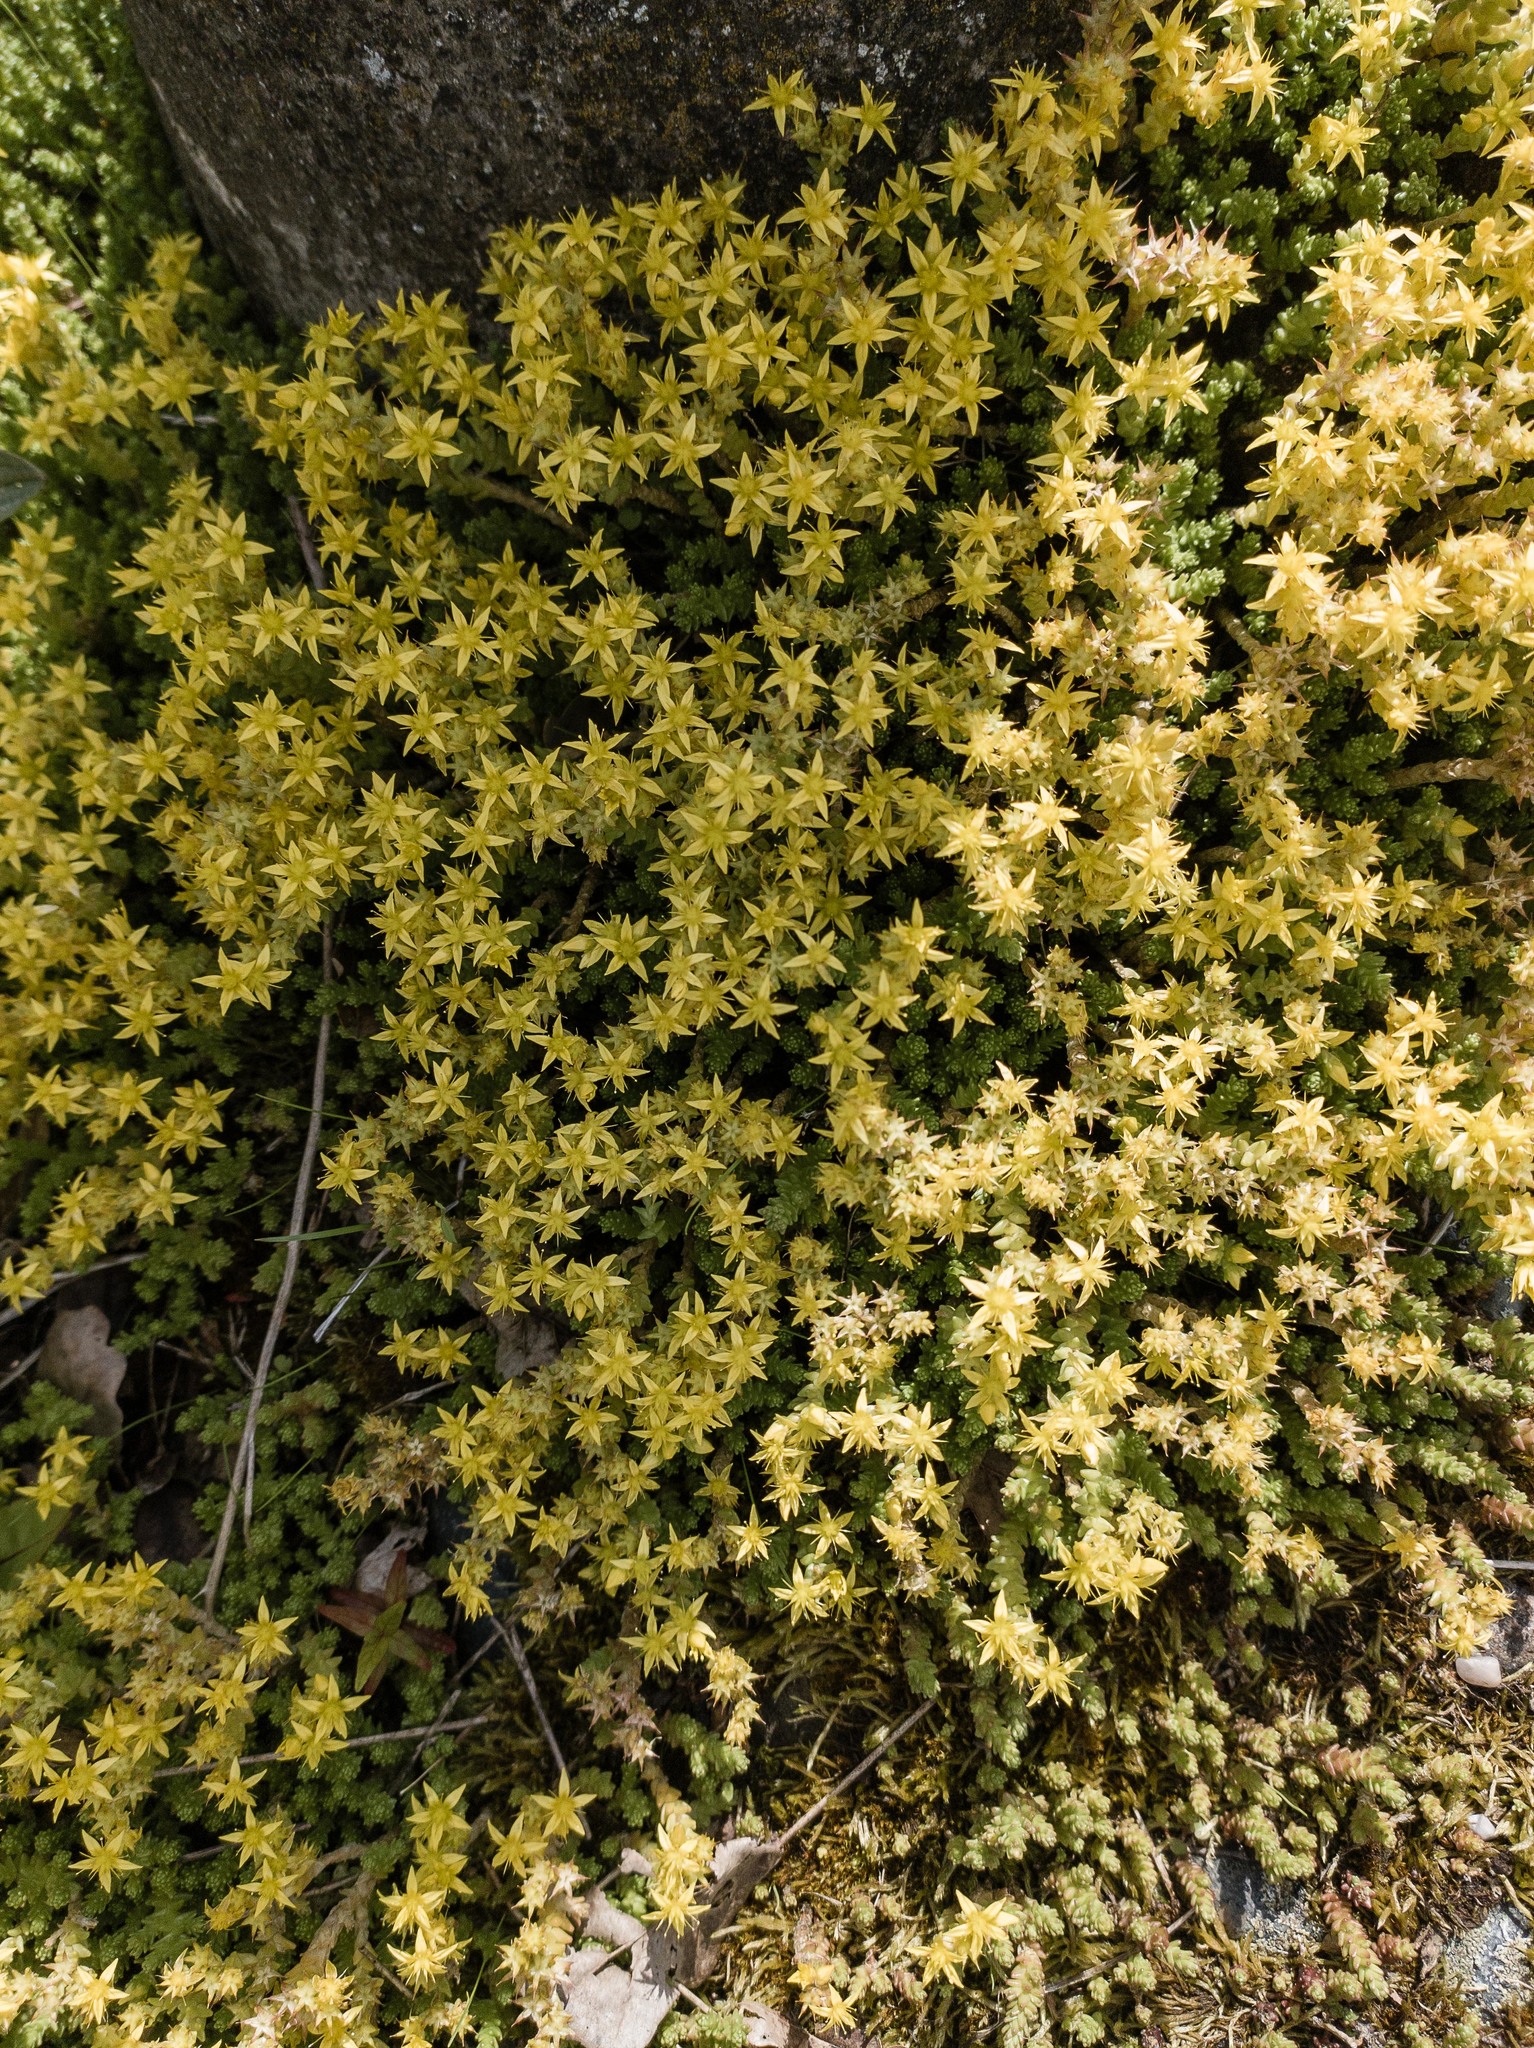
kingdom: Plantae
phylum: Tracheophyta
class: Magnoliopsida
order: Saxifragales
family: Crassulaceae
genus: Sedum
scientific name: Sedum acre
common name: Biting stonecrop
